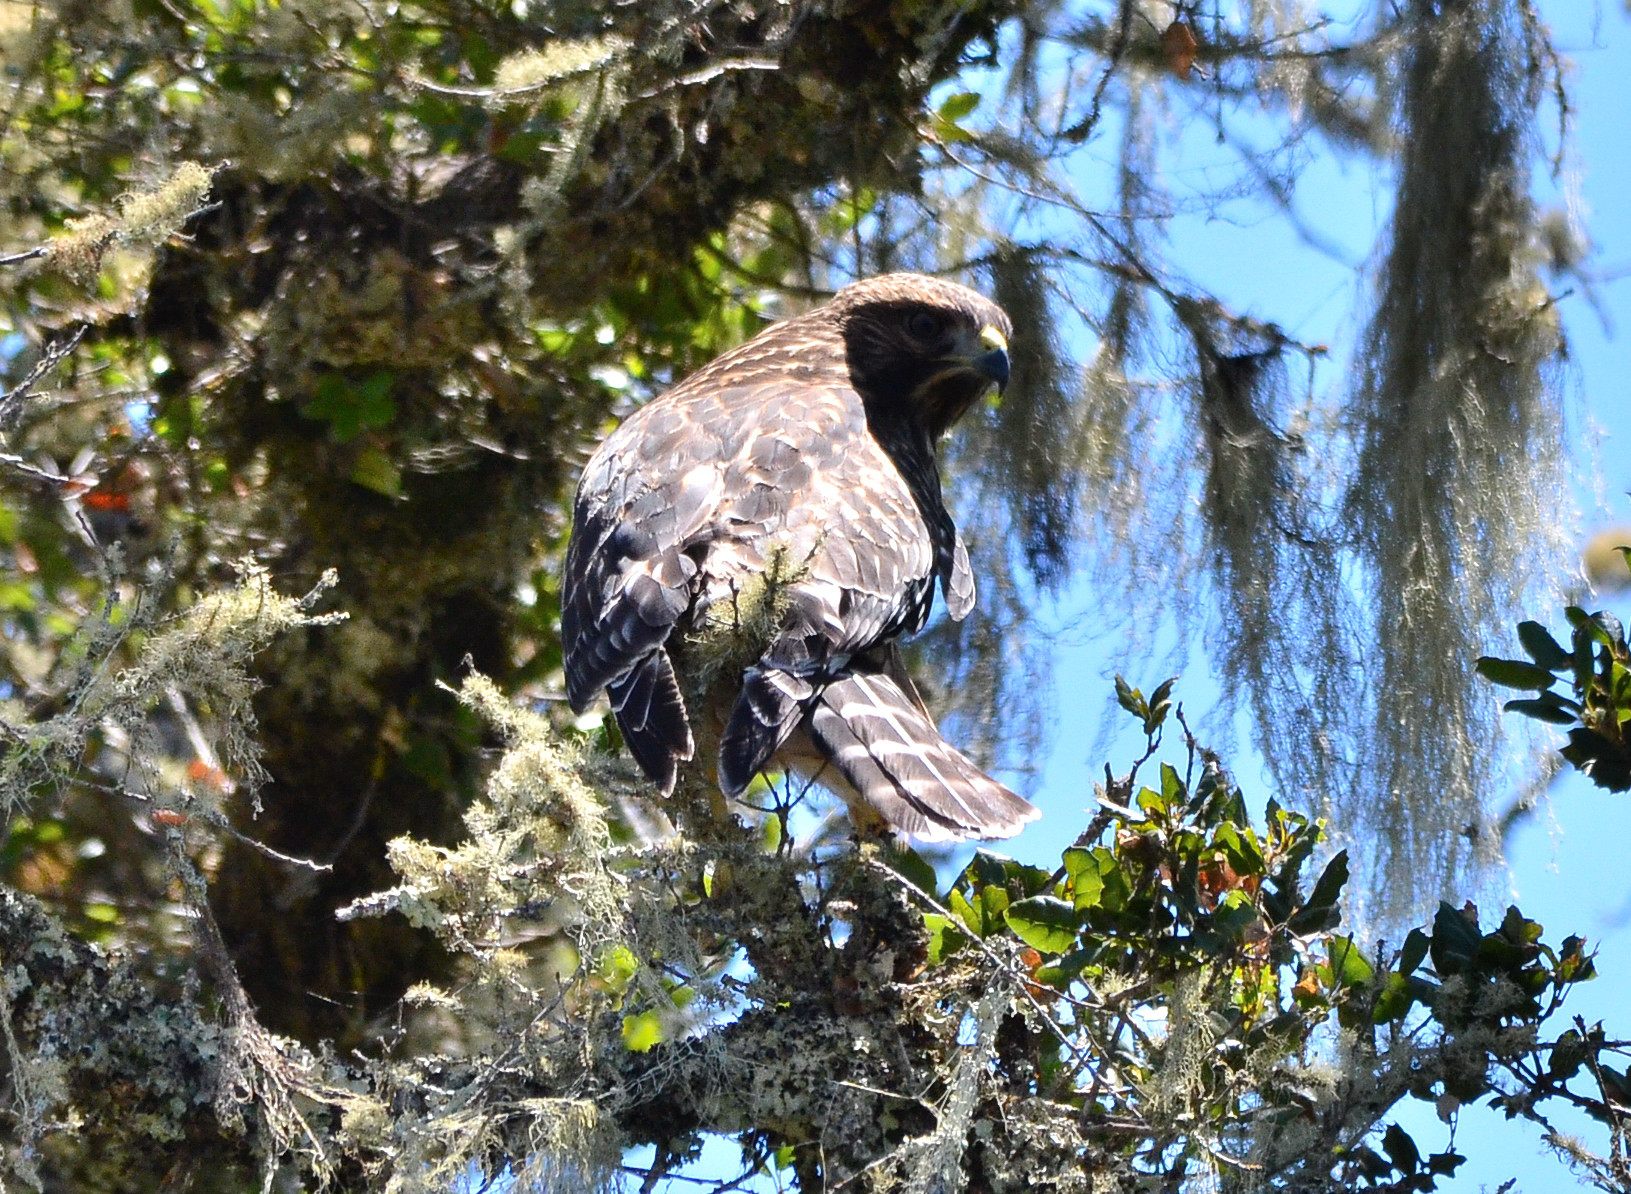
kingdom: Animalia
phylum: Chordata
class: Aves
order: Accipitriformes
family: Accipitridae
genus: Buteo
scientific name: Buteo lineatus
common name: Red-shouldered hawk
